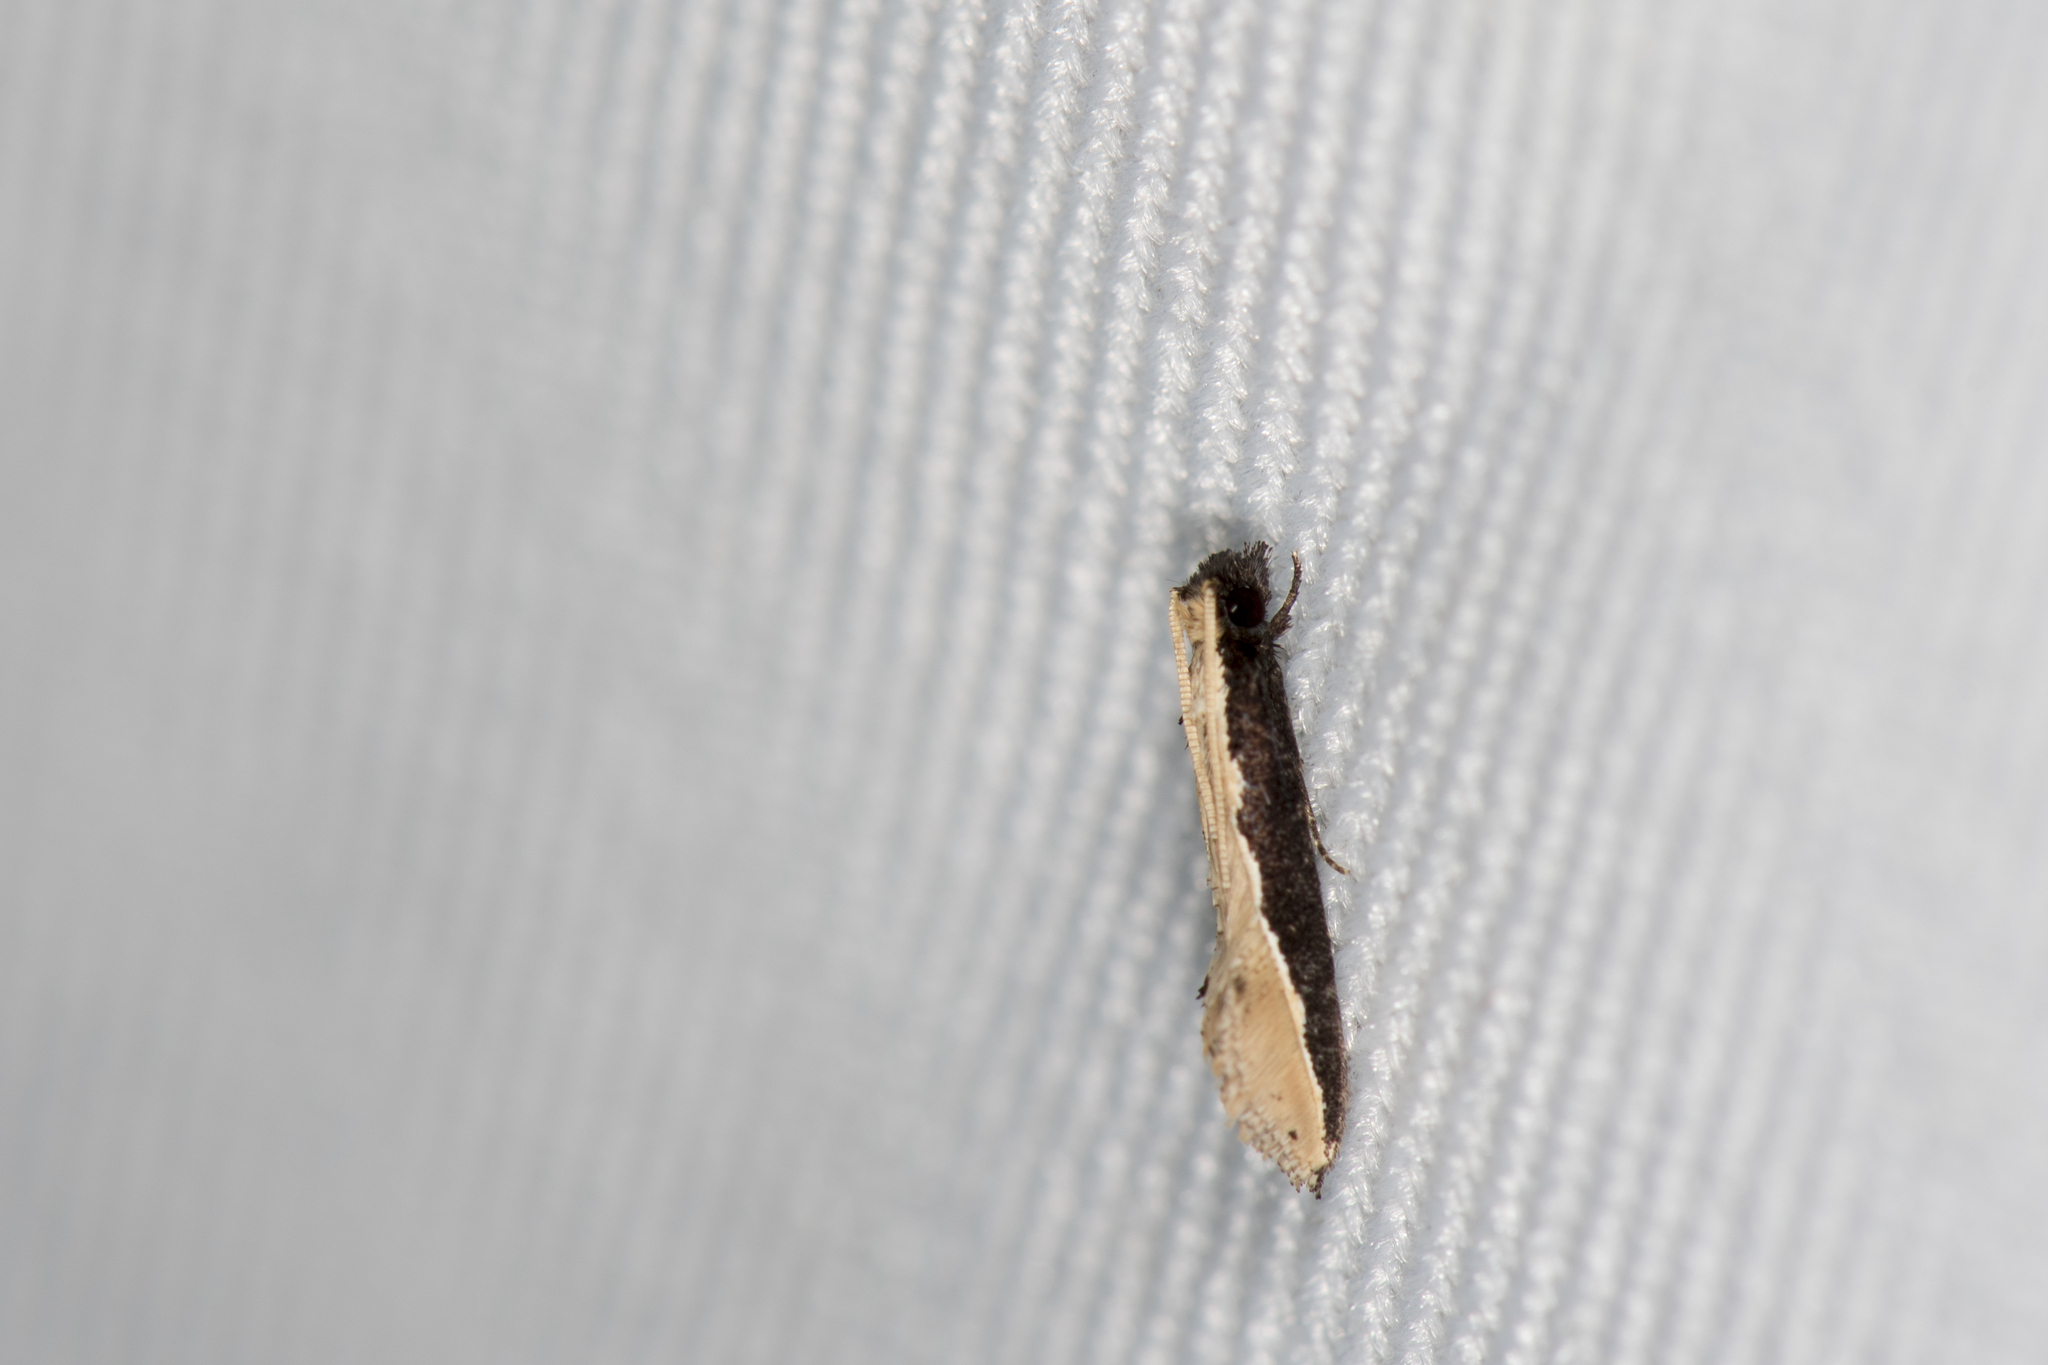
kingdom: Animalia
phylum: Arthropoda
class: Insecta
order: Lepidoptera
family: Tineidae
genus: Pyloetis
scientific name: Pyloetis mimosae
